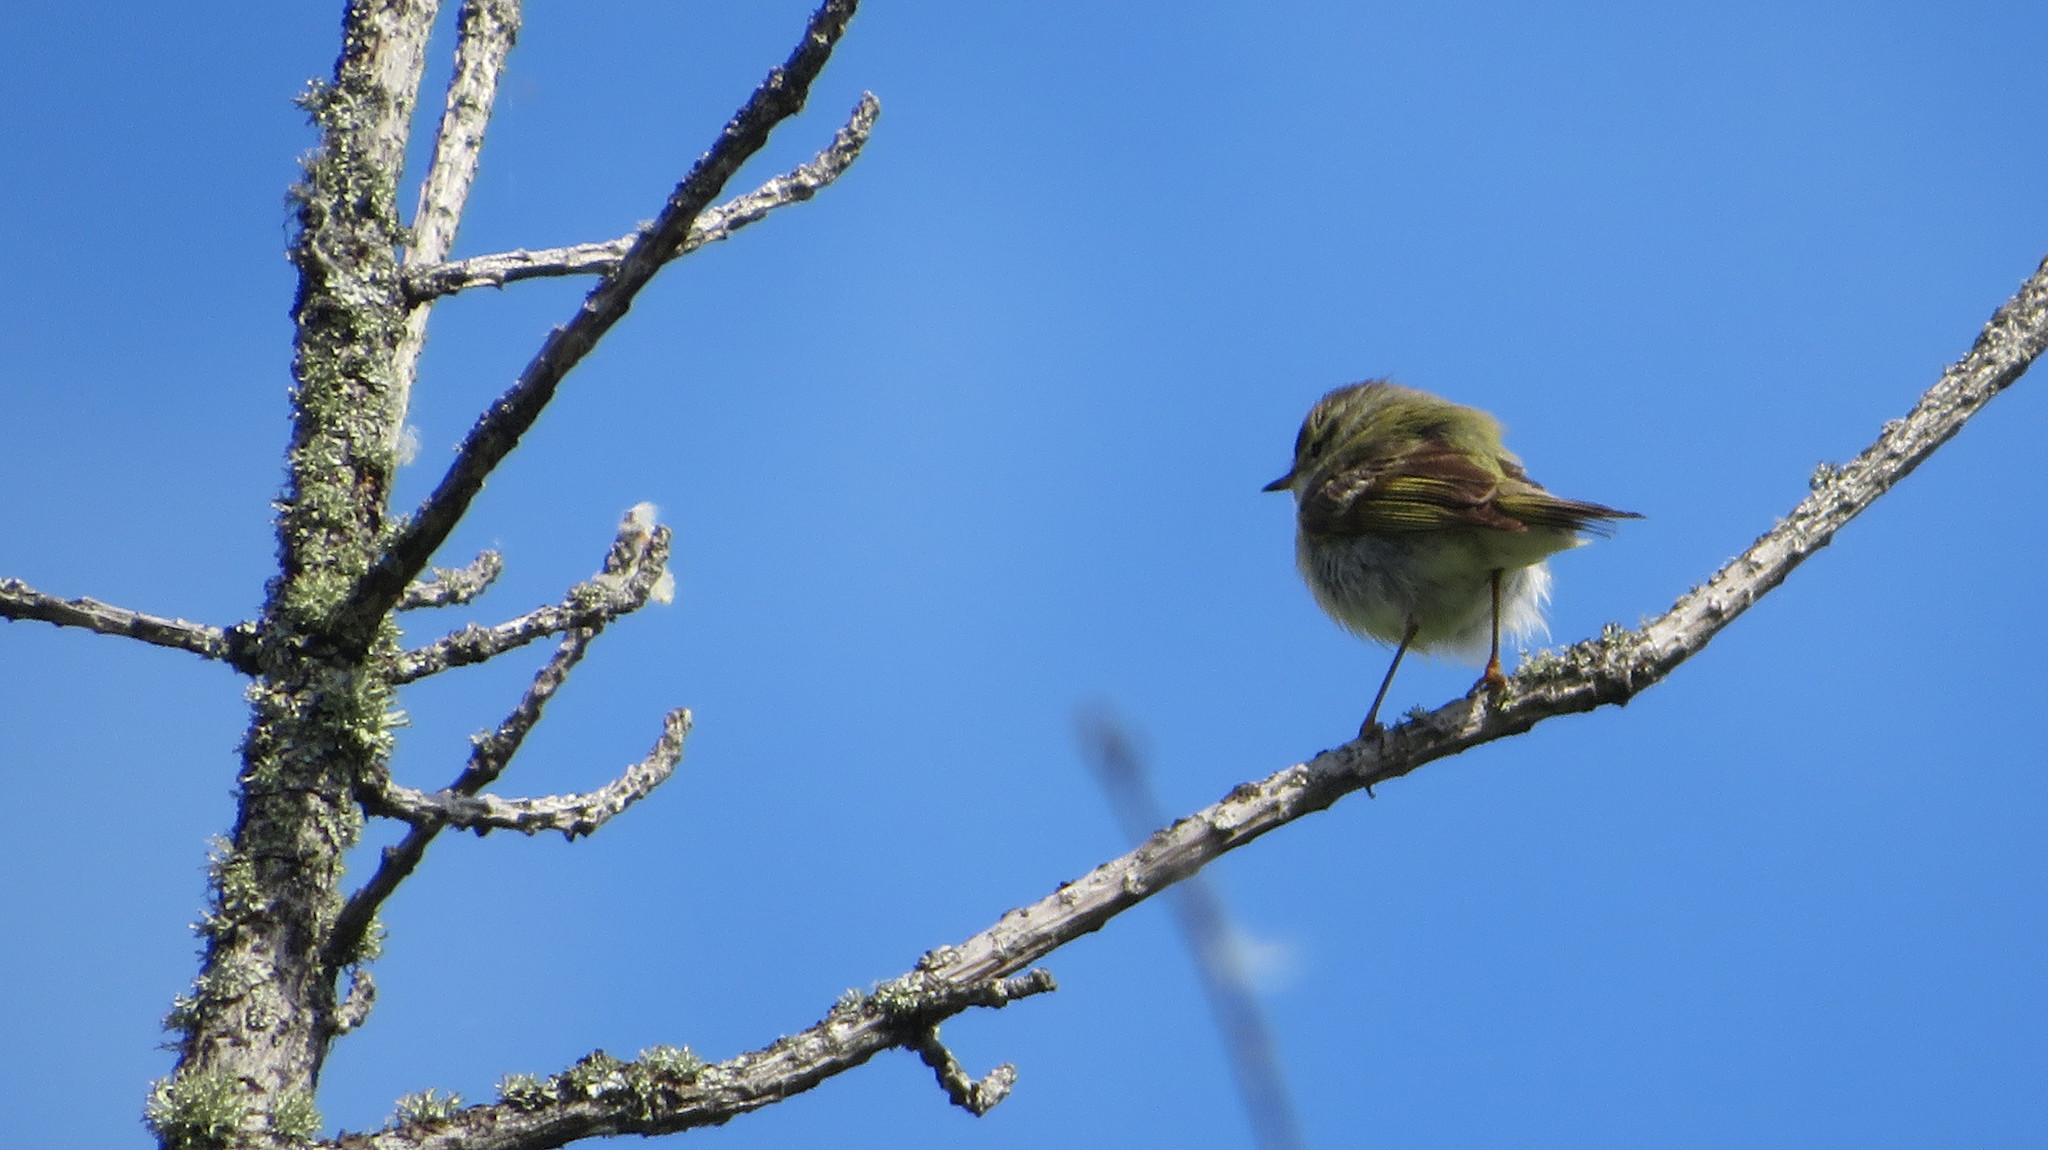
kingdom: Animalia
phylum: Chordata
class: Aves
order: Passeriformes
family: Phylloscopidae
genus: Phylloscopus
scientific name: Phylloscopus trochiloides
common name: Greenish warbler
